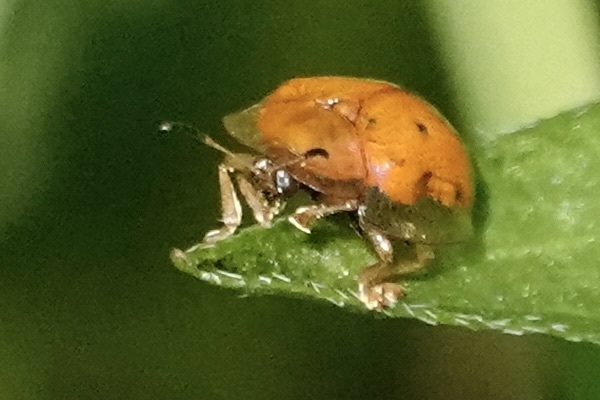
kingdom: Animalia
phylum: Arthropoda
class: Insecta
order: Coleoptera
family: Chrysomelidae
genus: Charidotella
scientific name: Charidotella sexpunctata
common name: Golden tortoise beetle
